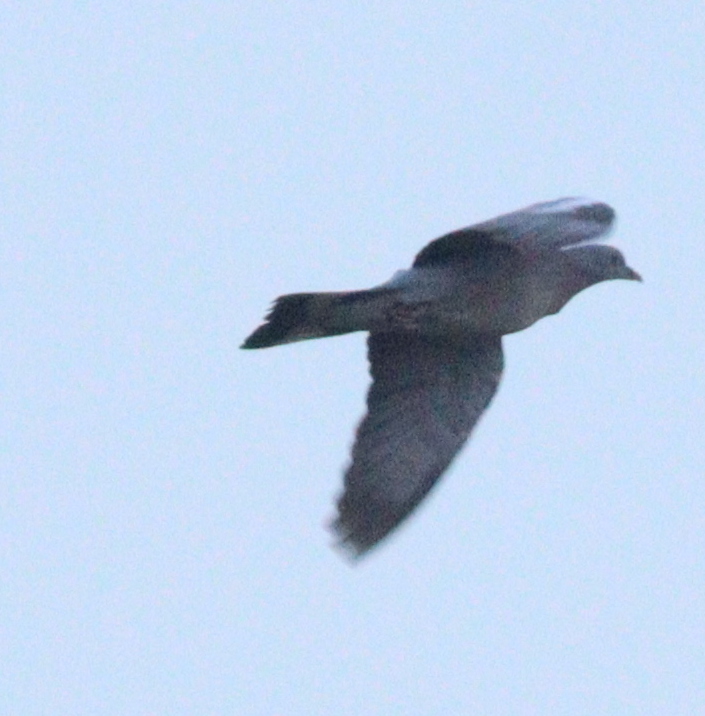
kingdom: Animalia
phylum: Chordata
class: Aves
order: Columbiformes
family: Columbidae
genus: Columba
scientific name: Columba palumbus
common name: Common wood pigeon
